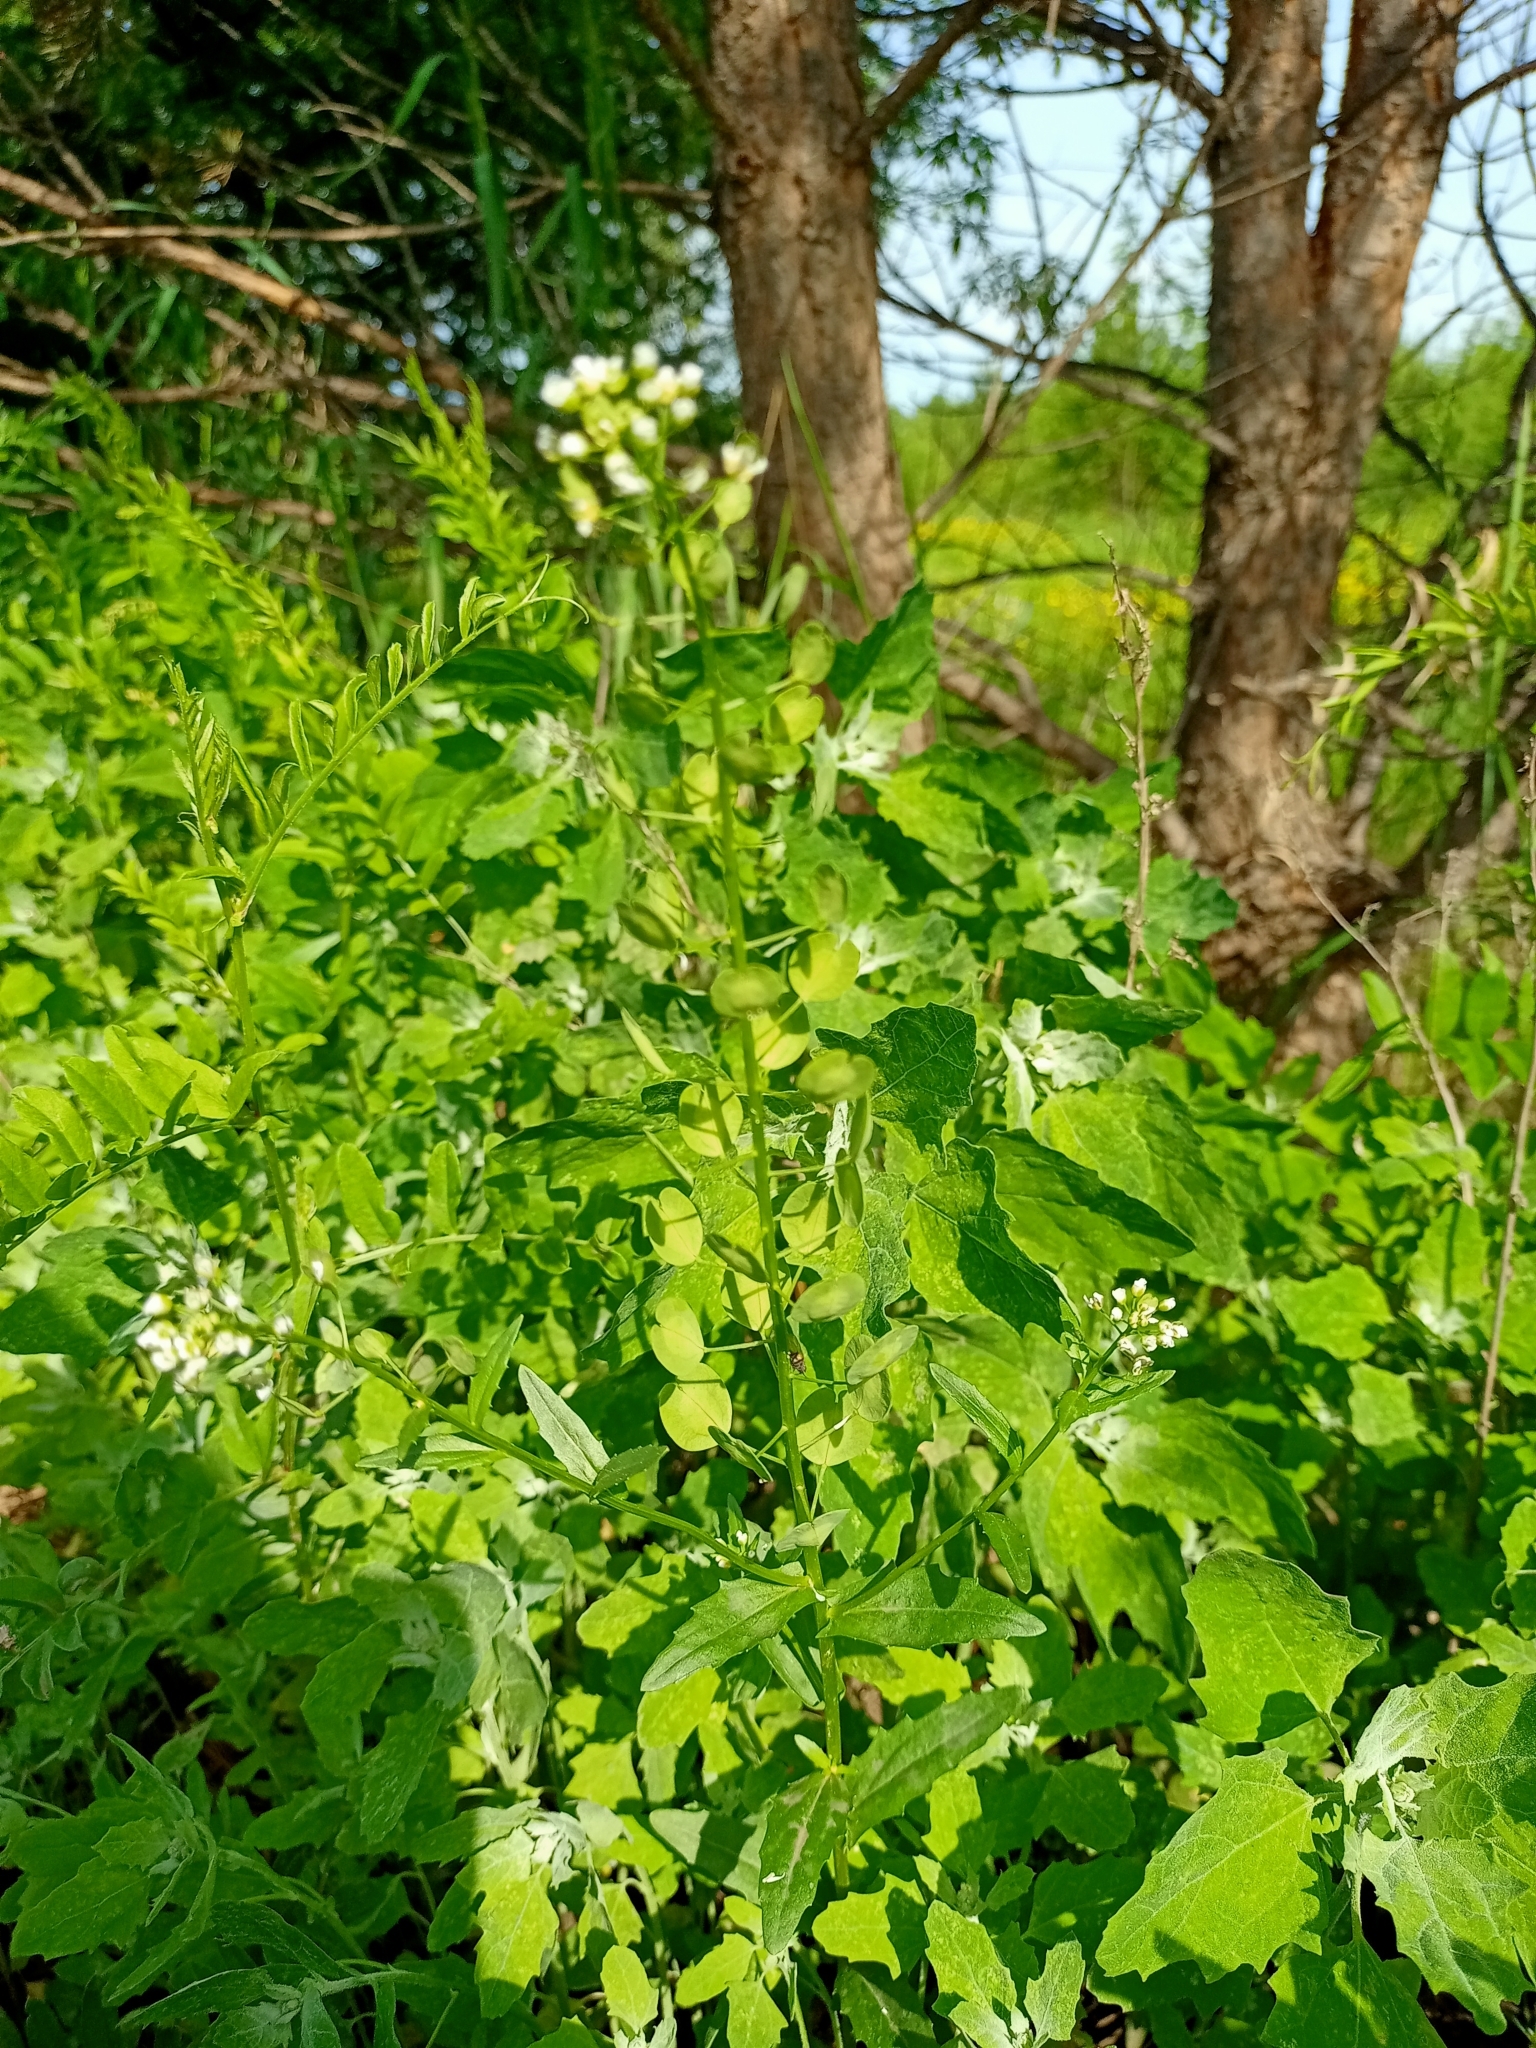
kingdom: Plantae
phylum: Tracheophyta
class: Magnoliopsida
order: Brassicales
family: Brassicaceae
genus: Thlaspi
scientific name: Thlaspi arvense
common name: Field pennycress
